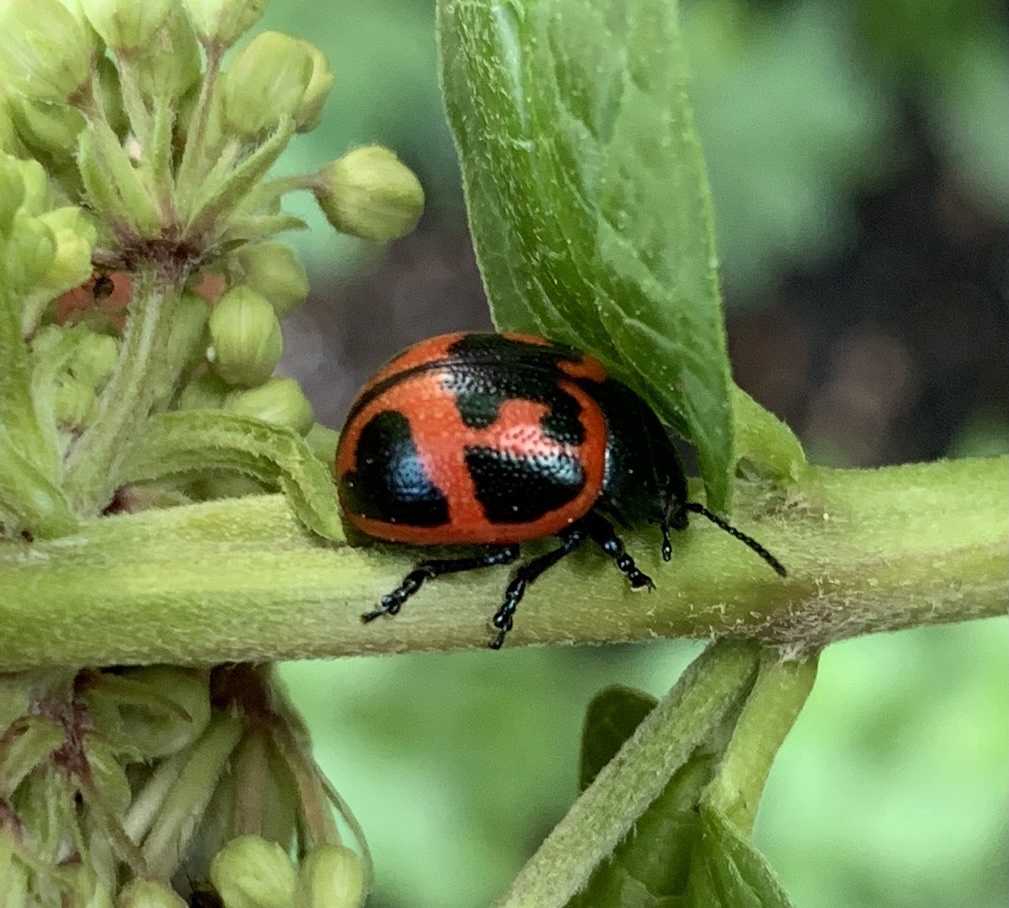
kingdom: Animalia
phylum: Arthropoda
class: Insecta
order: Coleoptera
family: Chrysomelidae
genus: Labidomera
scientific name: Labidomera clivicollis
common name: Swamp milkweed leaf beetle
